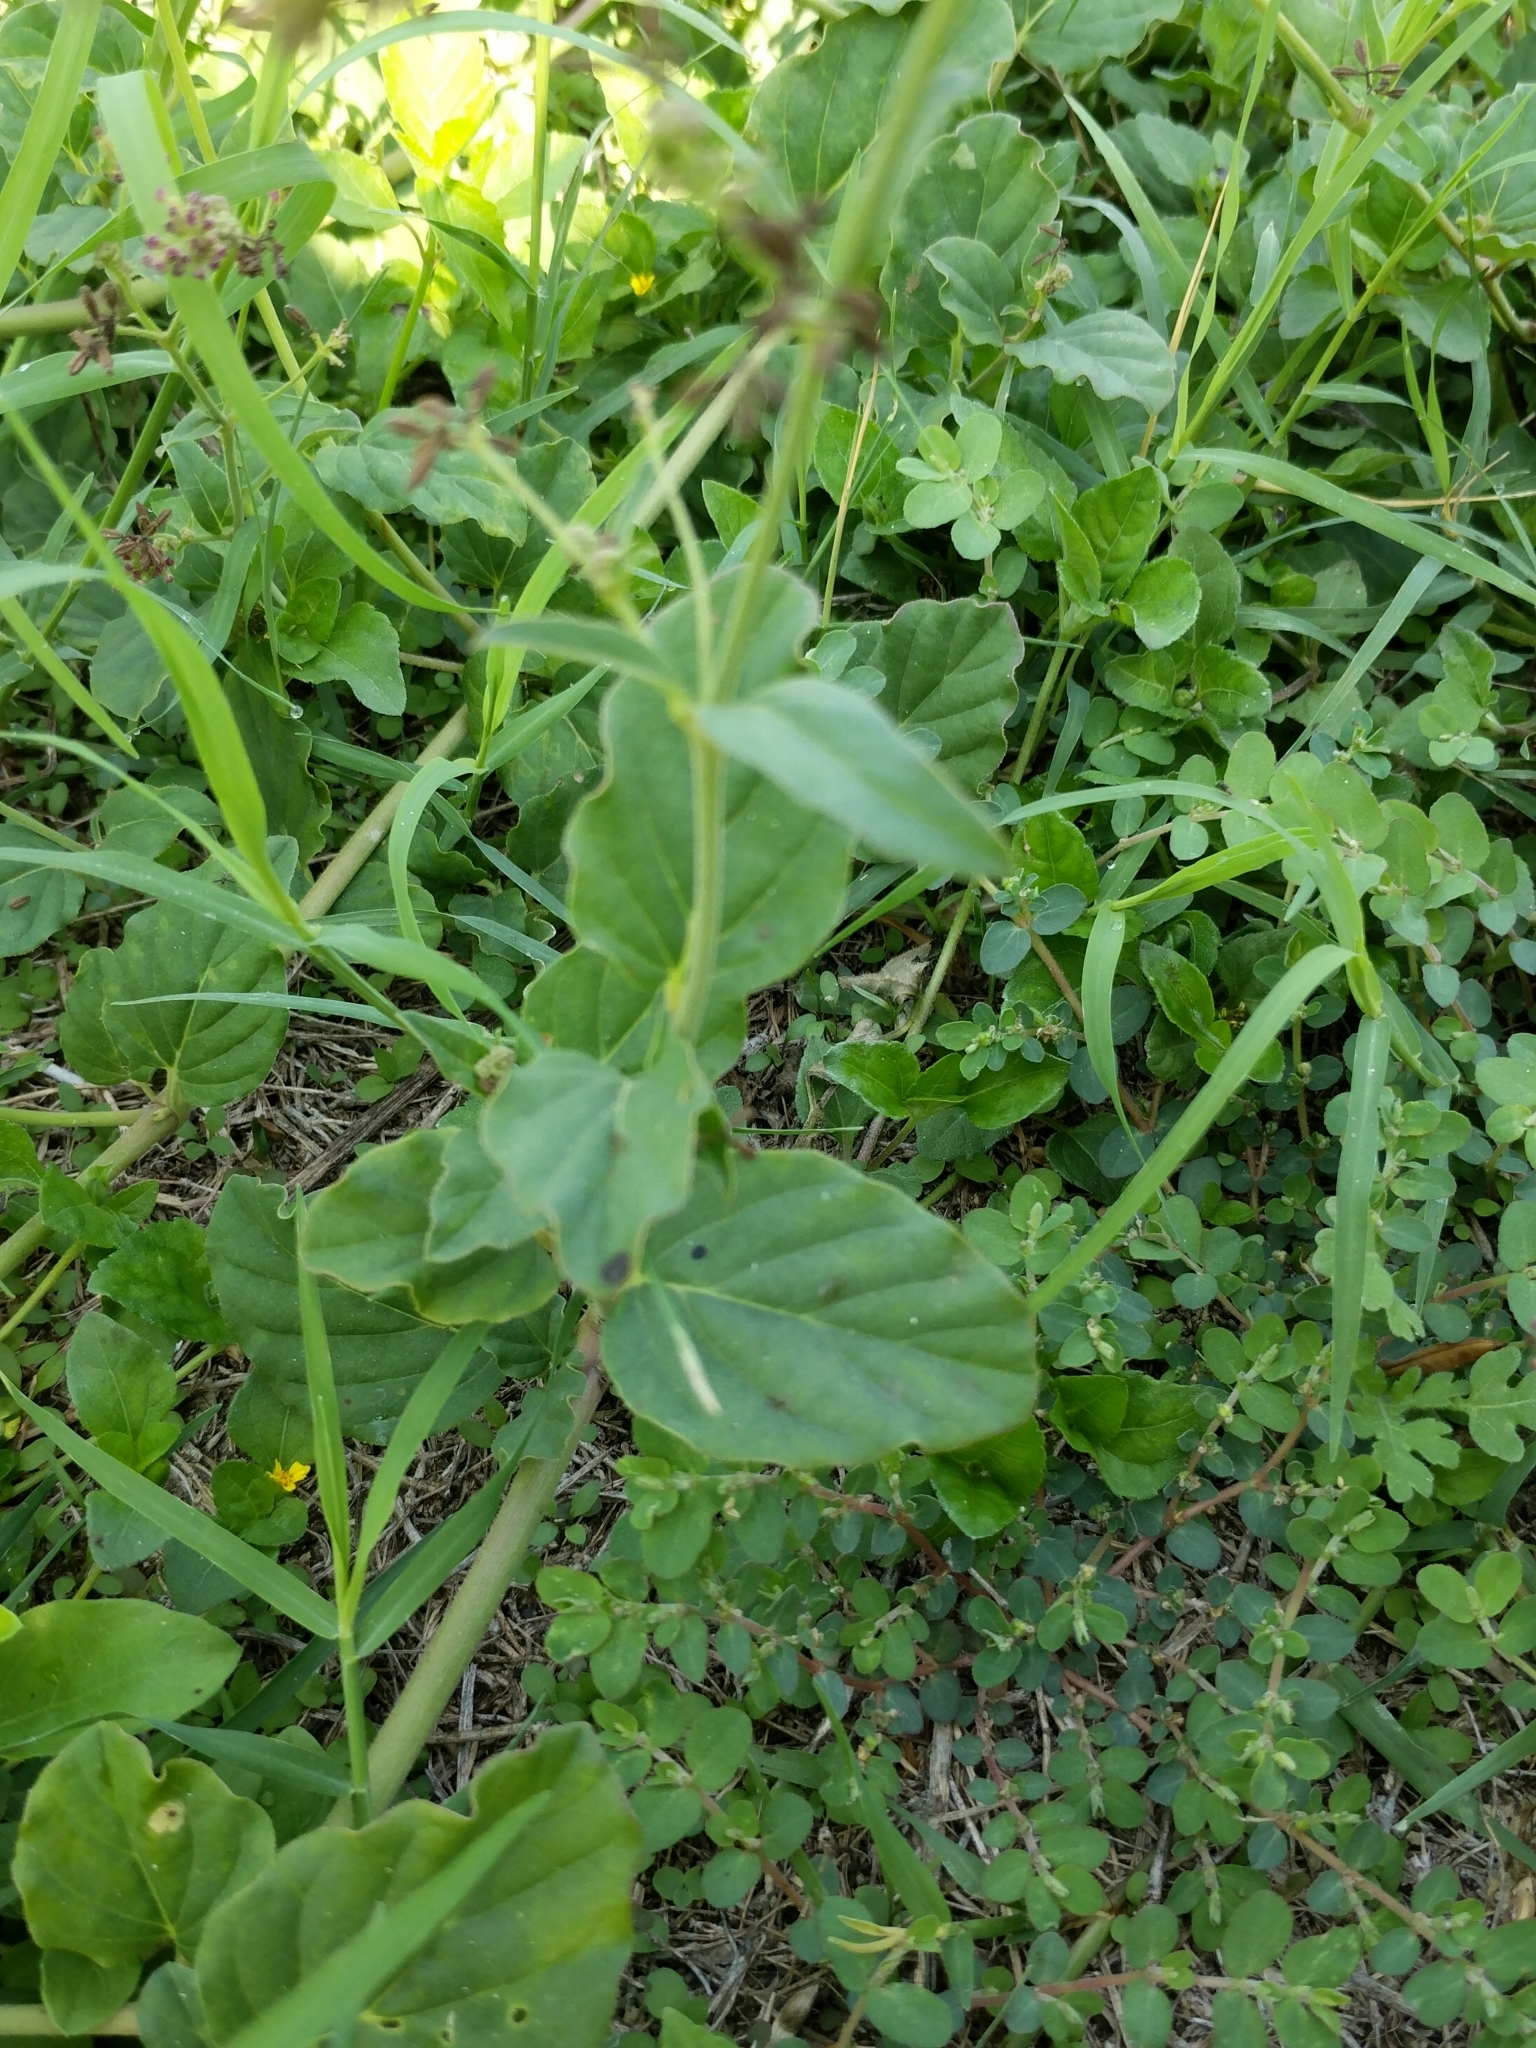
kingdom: Plantae
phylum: Tracheophyta
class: Magnoliopsida
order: Caryophyllales
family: Nyctaginaceae
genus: Boerhavia
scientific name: Boerhavia coccinea
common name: Scarlet spiderling
